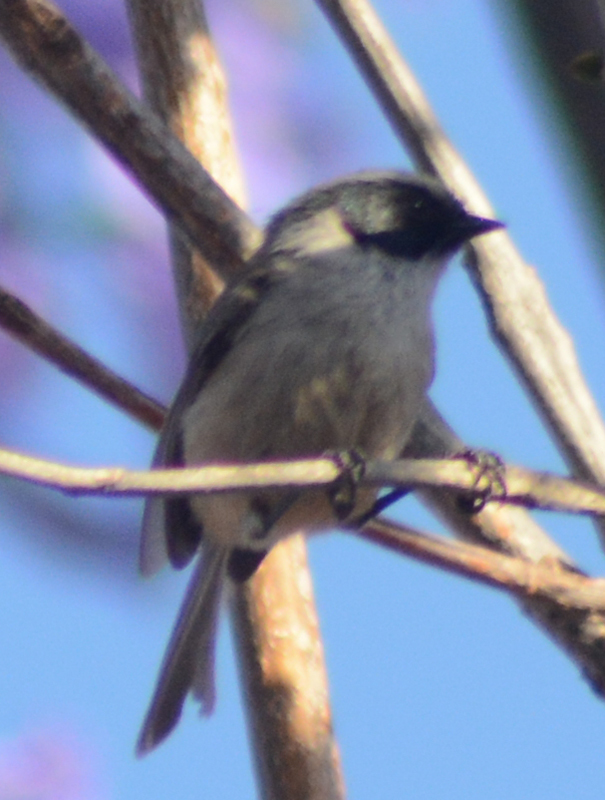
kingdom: Animalia
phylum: Chordata
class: Aves
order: Passeriformes
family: Aegithalidae
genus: Psaltriparus
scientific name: Psaltriparus minimus
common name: American bushtit
